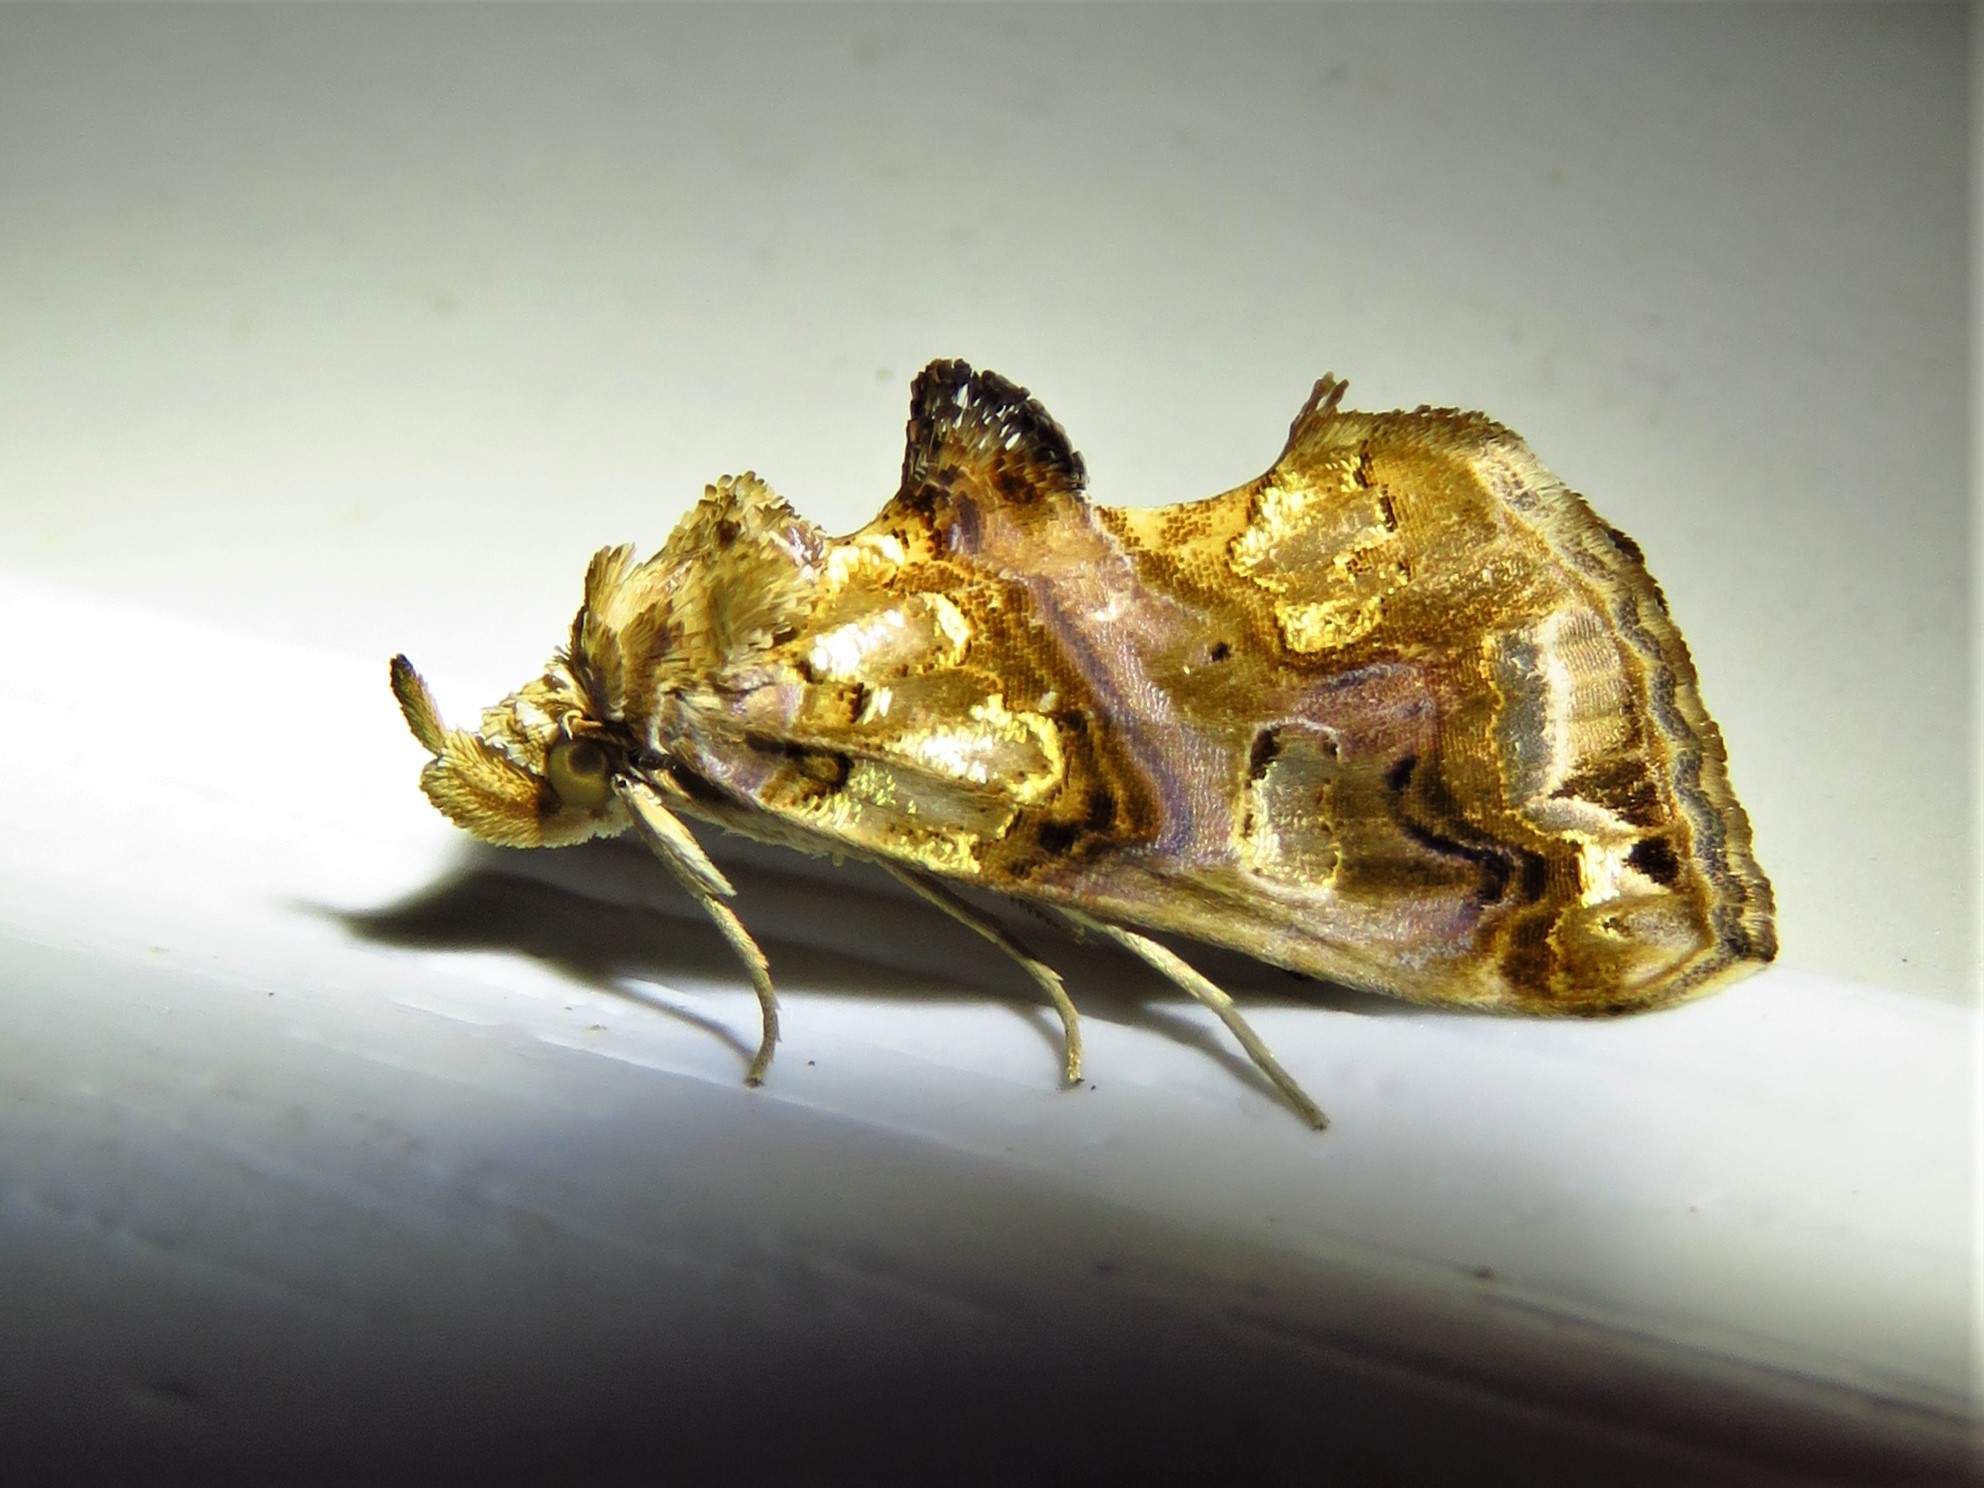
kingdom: Animalia
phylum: Arthropoda
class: Insecta
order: Lepidoptera
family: Erebidae
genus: Plusiodonta
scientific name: Plusiodonta compressipalpis
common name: Moonseed moth
